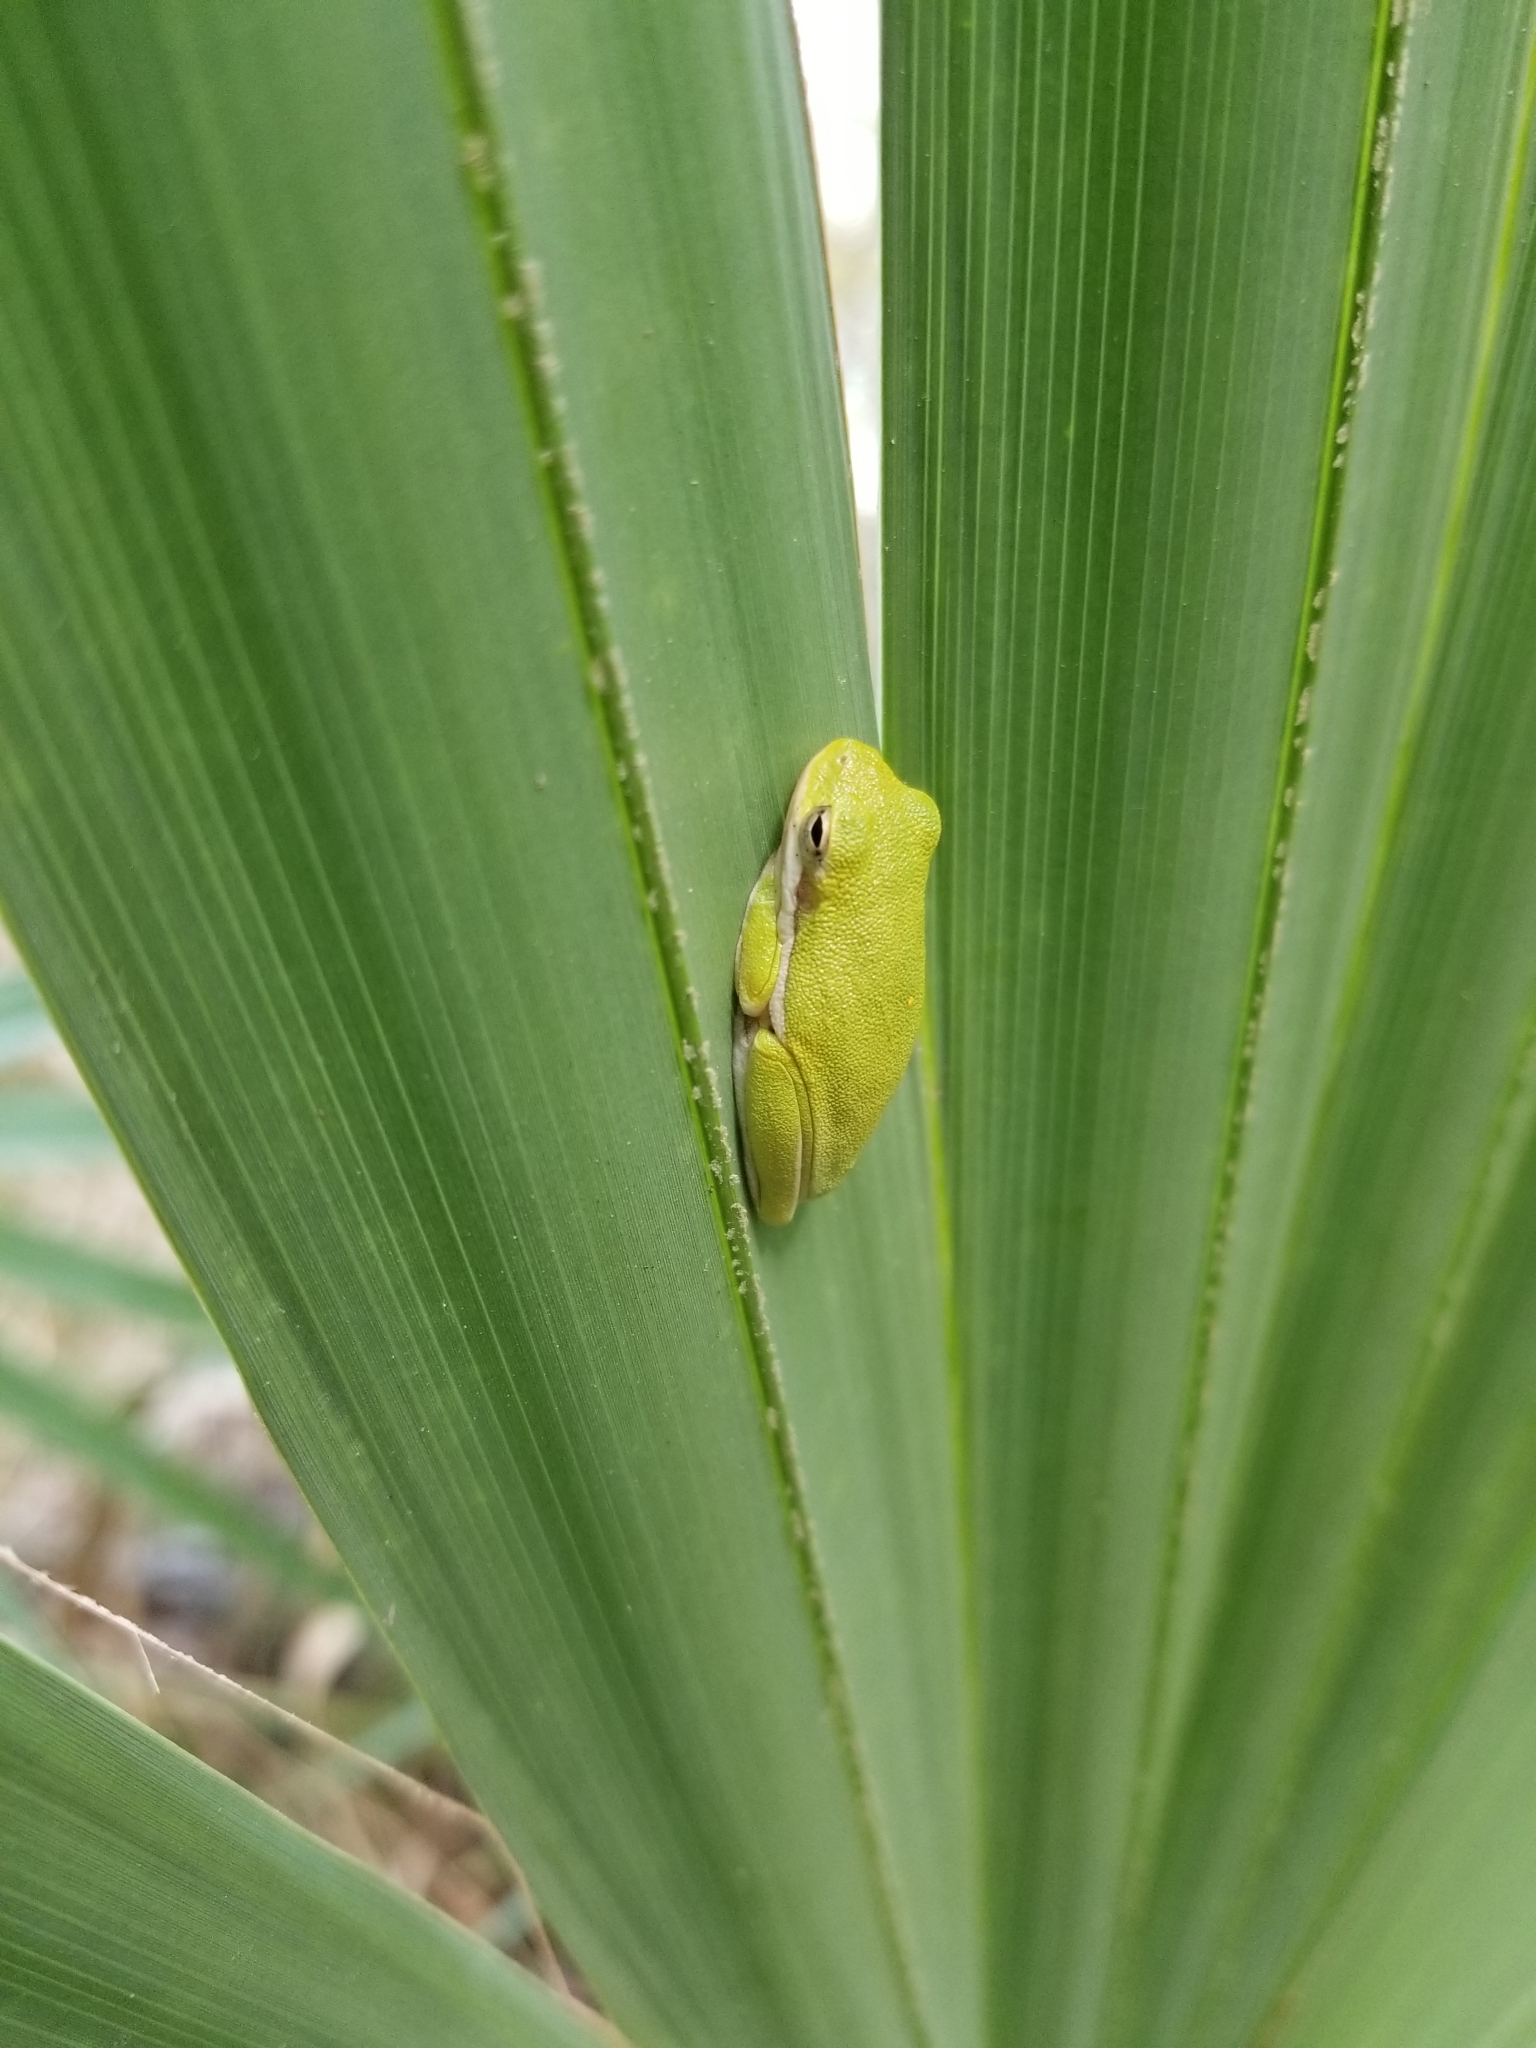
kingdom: Animalia
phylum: Chordata
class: Amphibia
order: Anura
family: Hylidae
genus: Dryophytes
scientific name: Dryophytes cinereus
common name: Green treefrog
